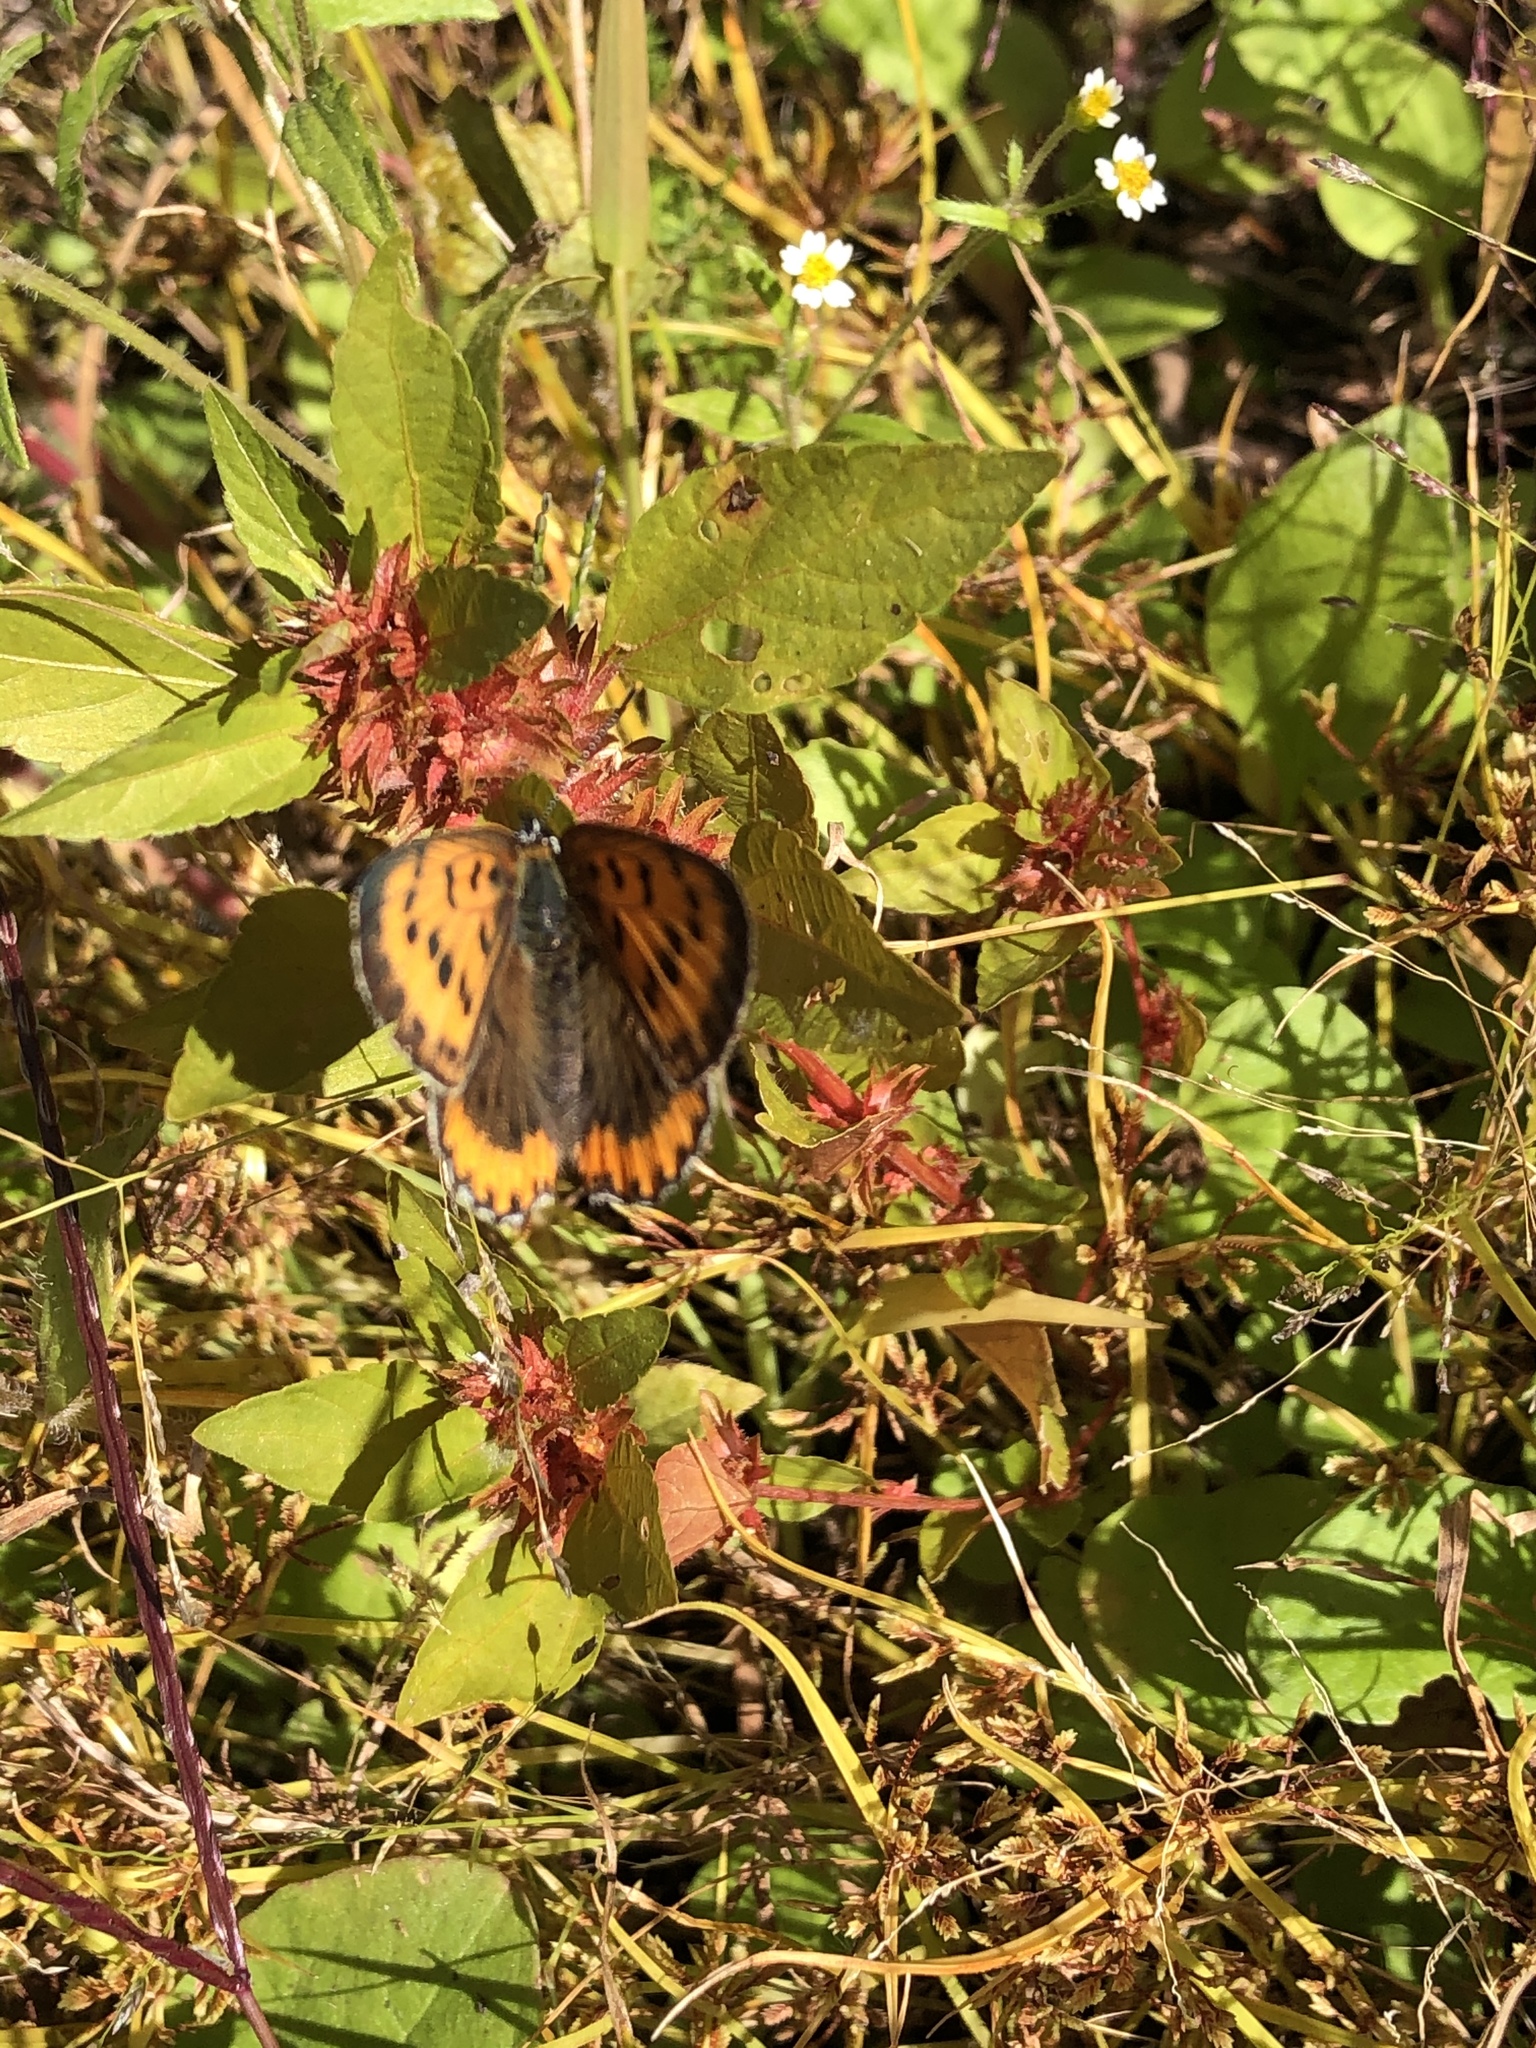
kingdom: Animalia
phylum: Arthropoda
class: Insecta
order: Lepidoptera
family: Lycaenidae
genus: Tharsalea
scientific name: Tharsalea hyllus
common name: Bronze copper
